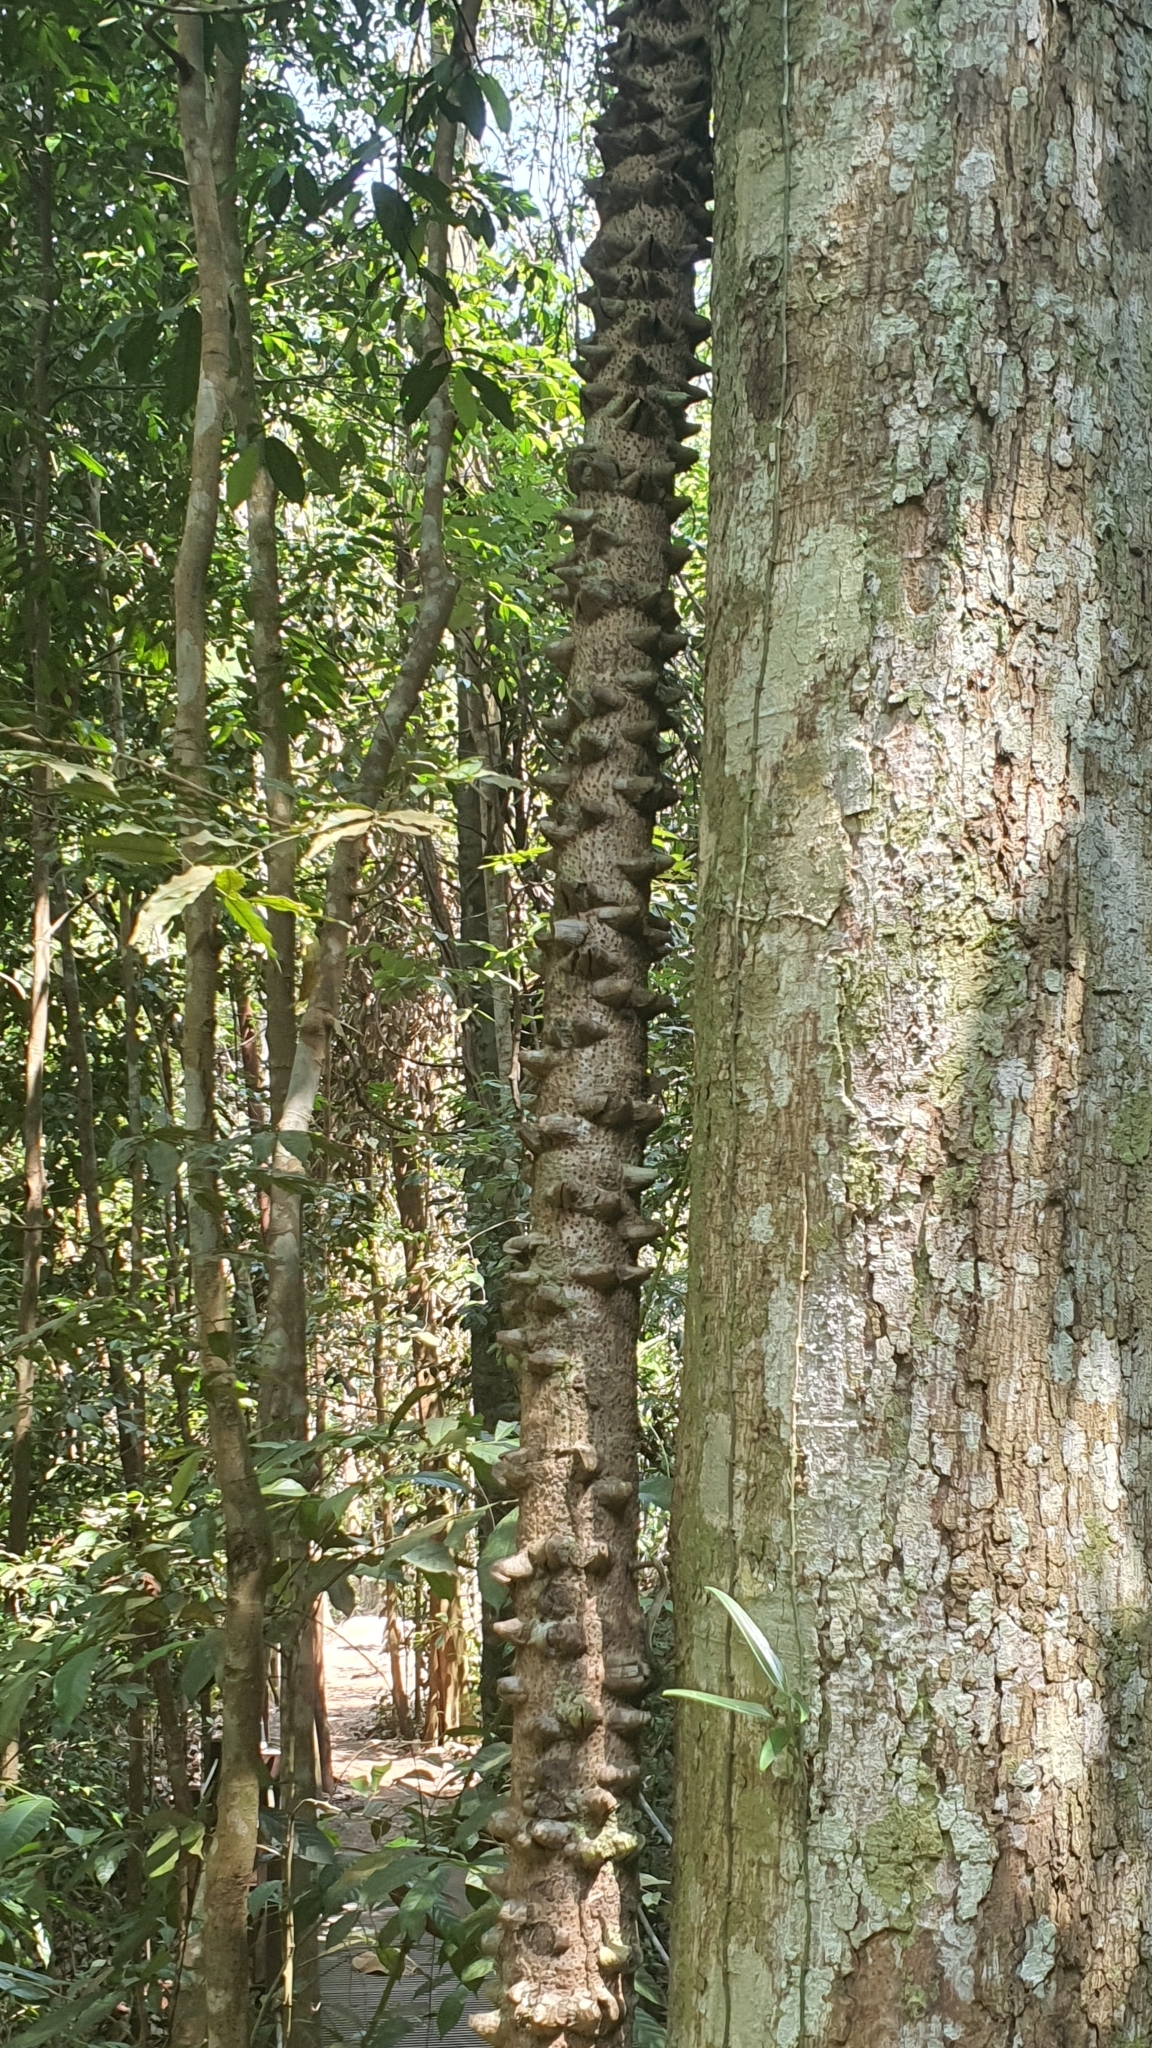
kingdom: Plantae
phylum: Tracheophyta
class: Magnoliopsida
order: Fabales
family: Fabaceae
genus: Mezoneuron
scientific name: Mezoneuron sumatranum
